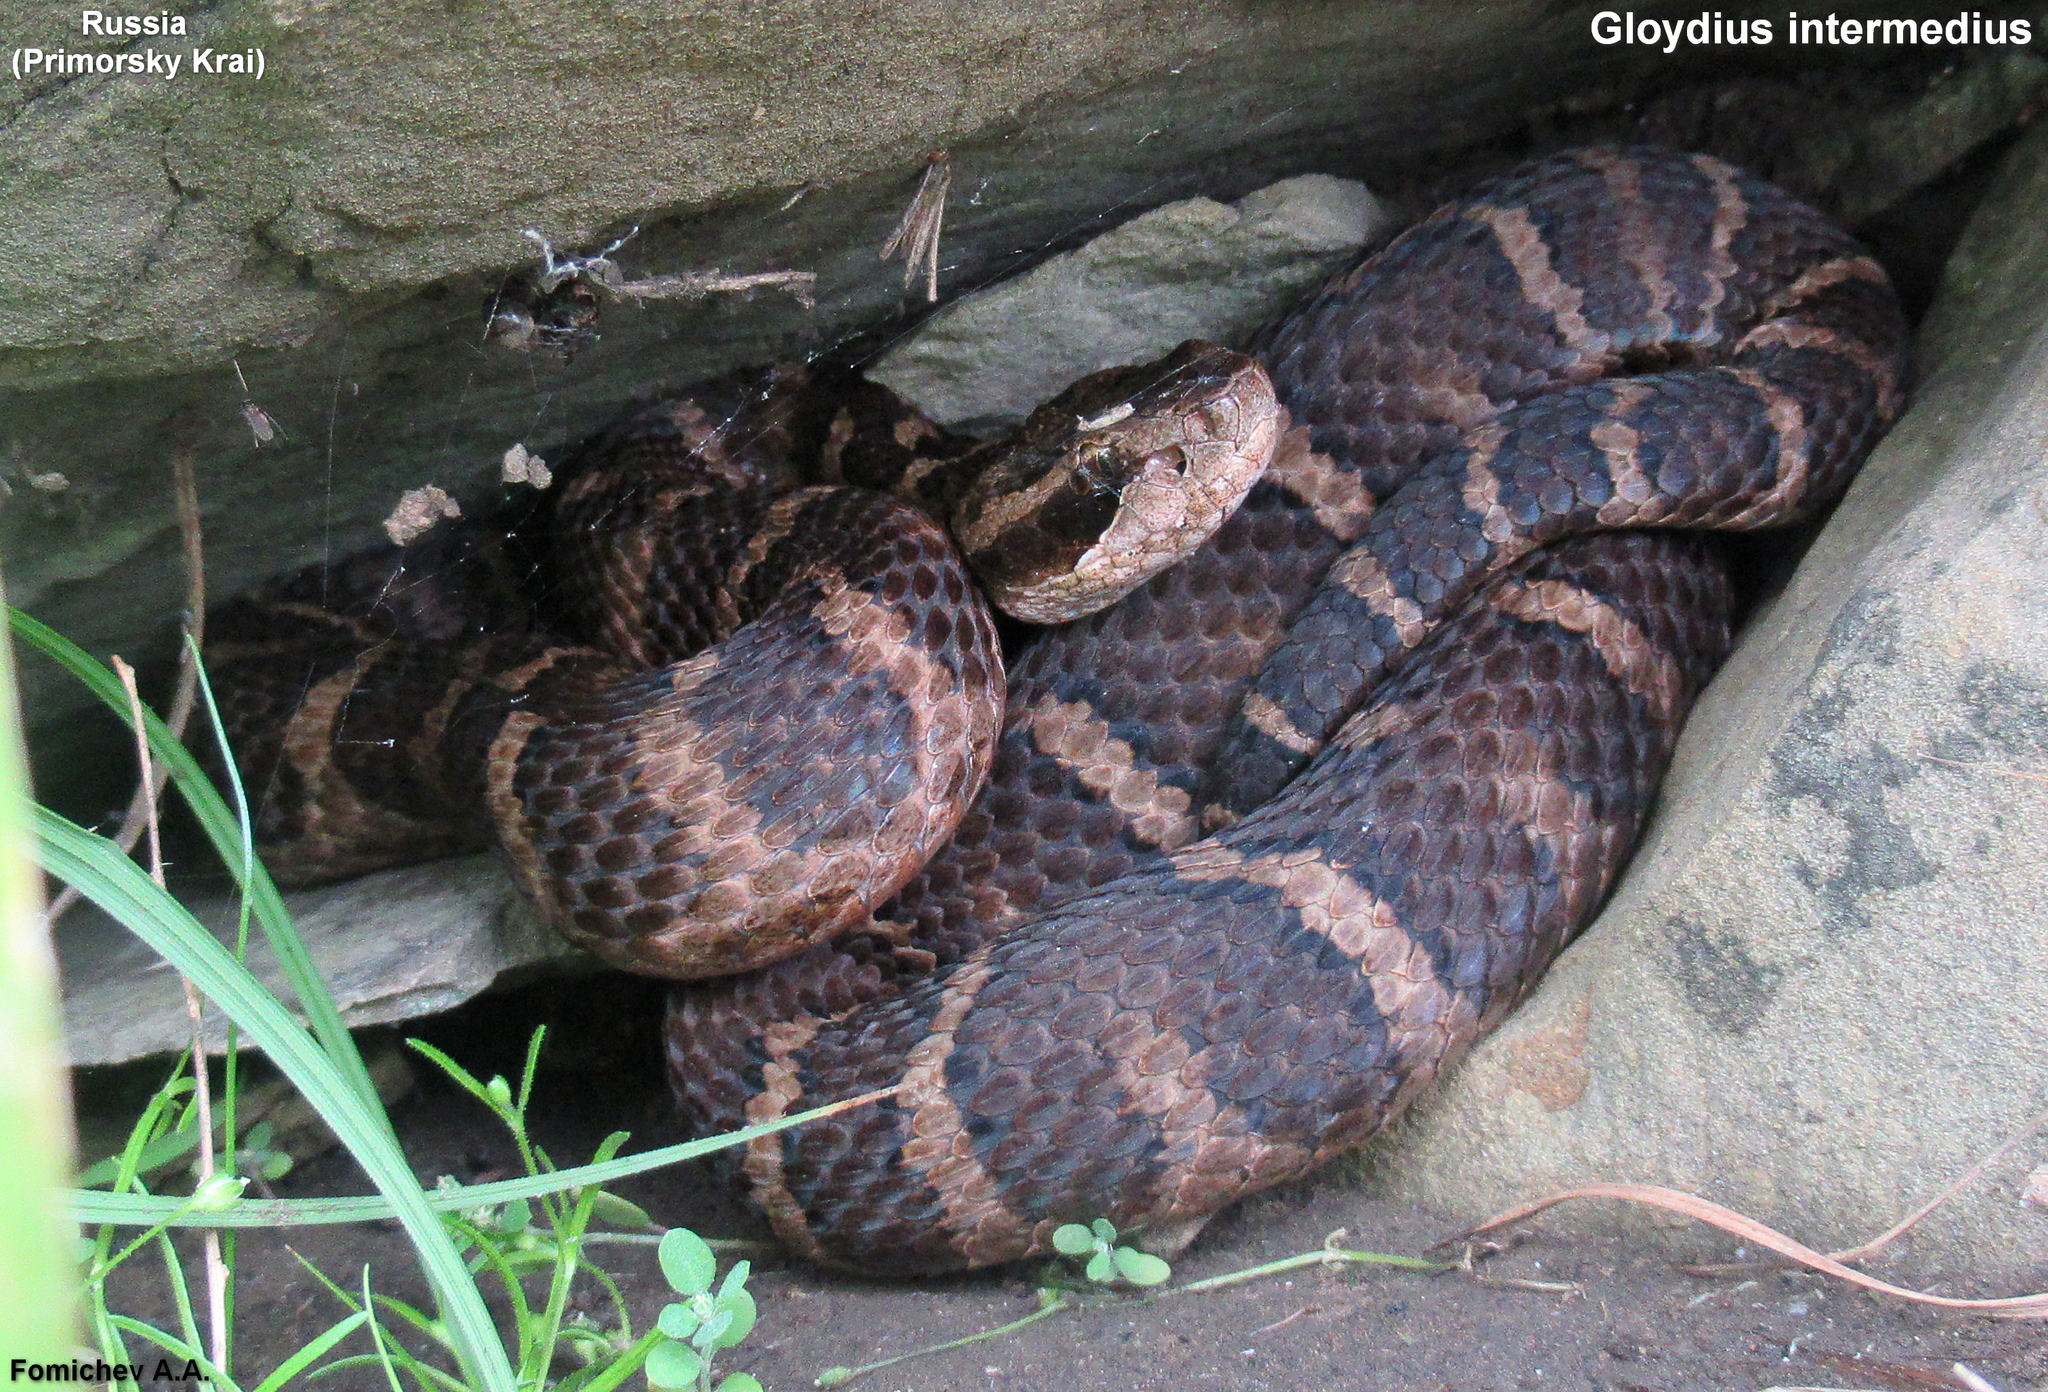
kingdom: Animalia
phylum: Chordata
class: Squamata
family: Viperidae
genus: Gloydius
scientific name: Gloydius intermedius
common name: Central asian pit viper
